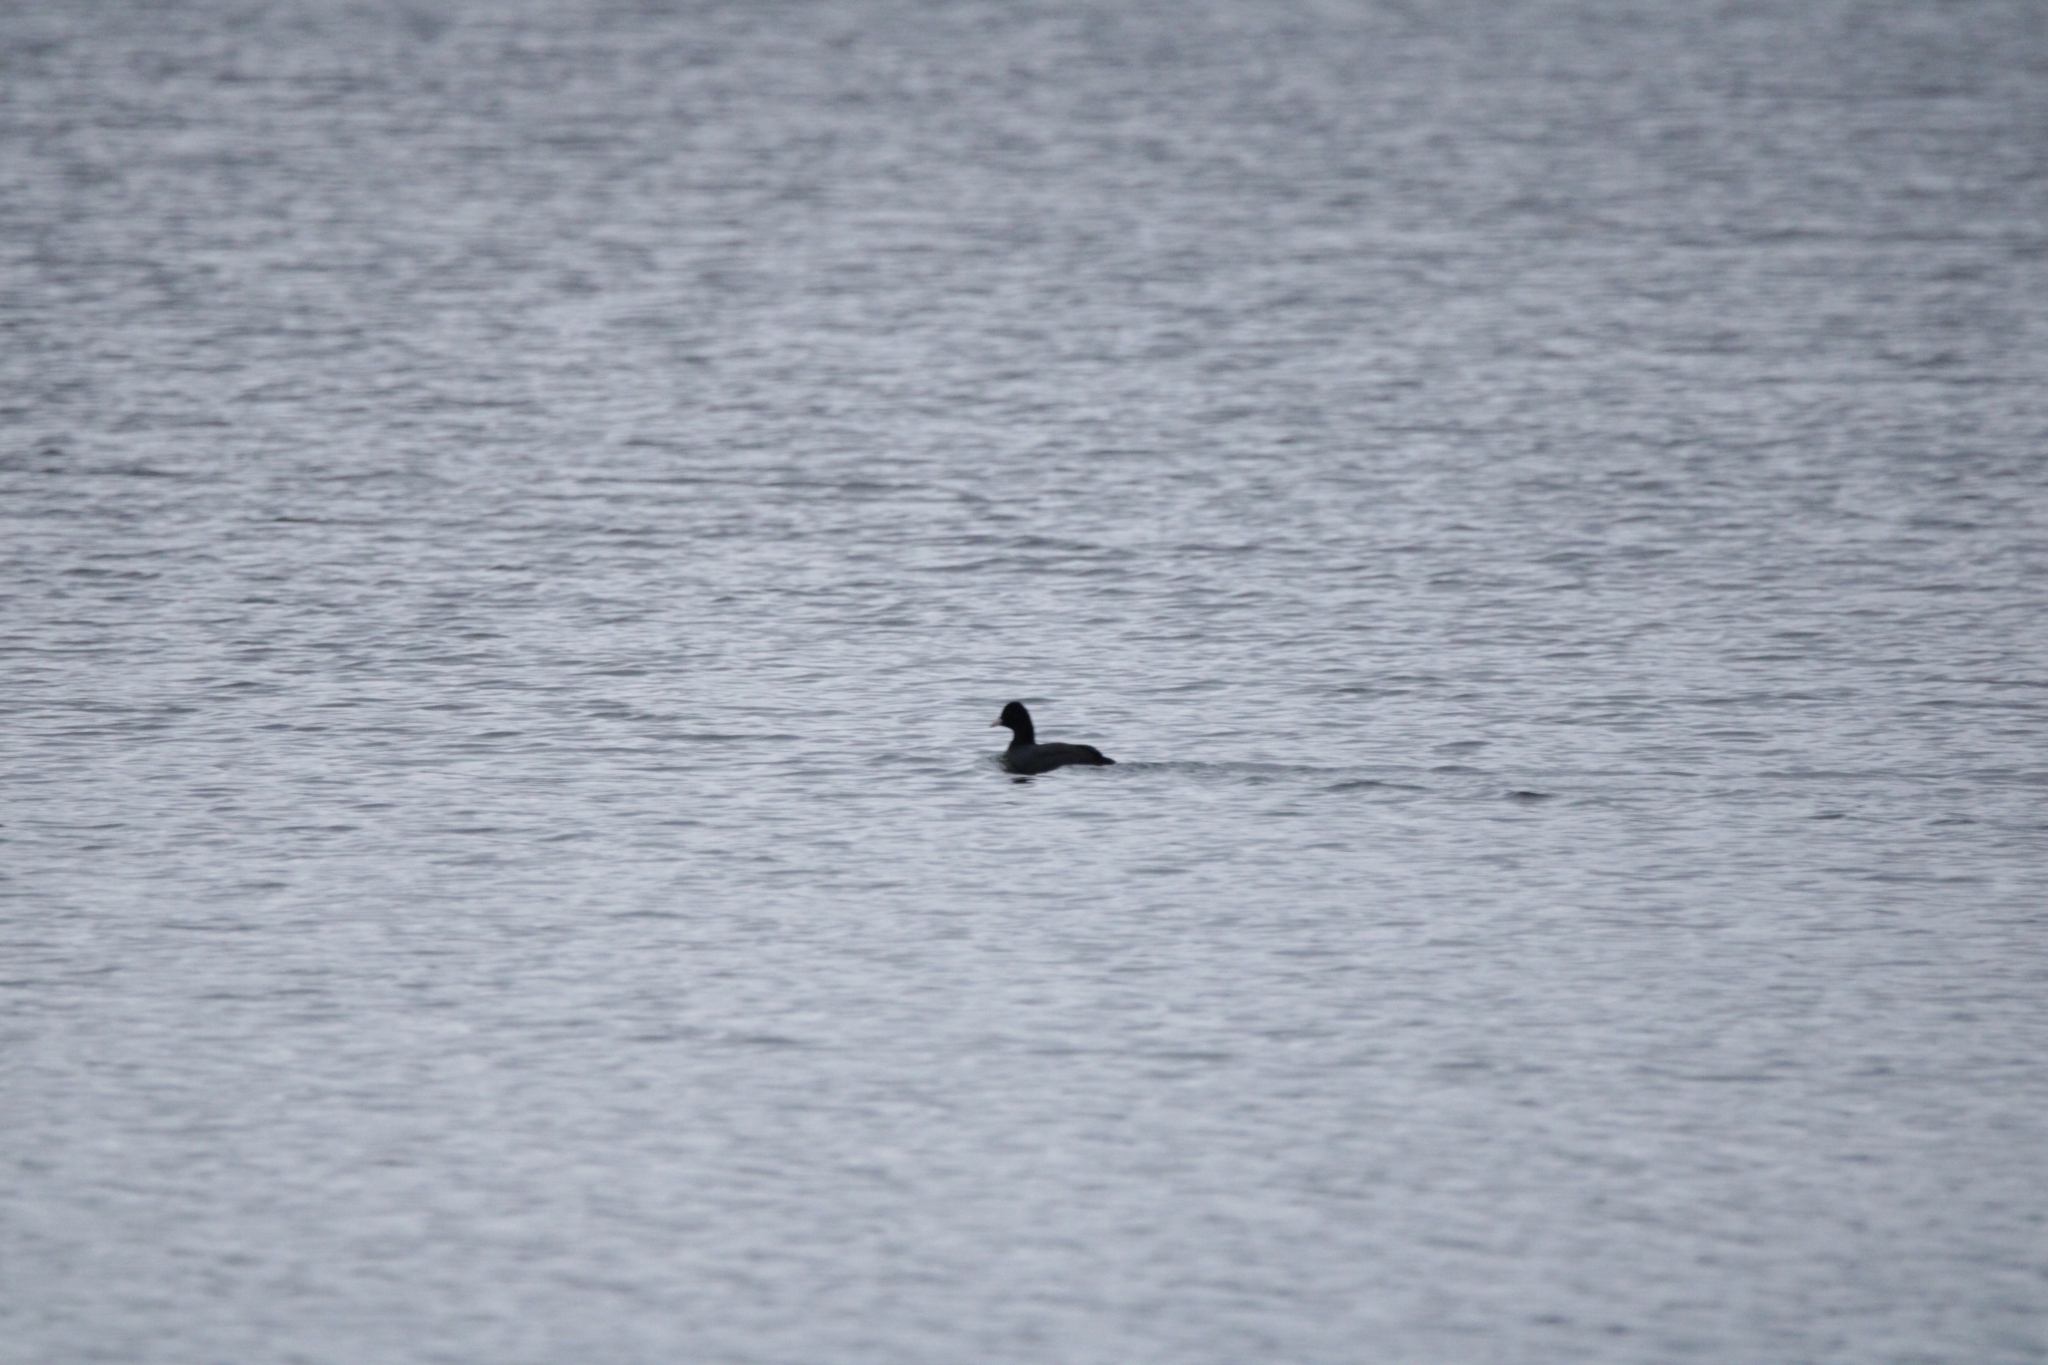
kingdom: Animalia
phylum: Chordata
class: Aves
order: Gruiformes
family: Rallidae
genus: Fulica
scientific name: Fulica atra
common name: Eurasian coot
